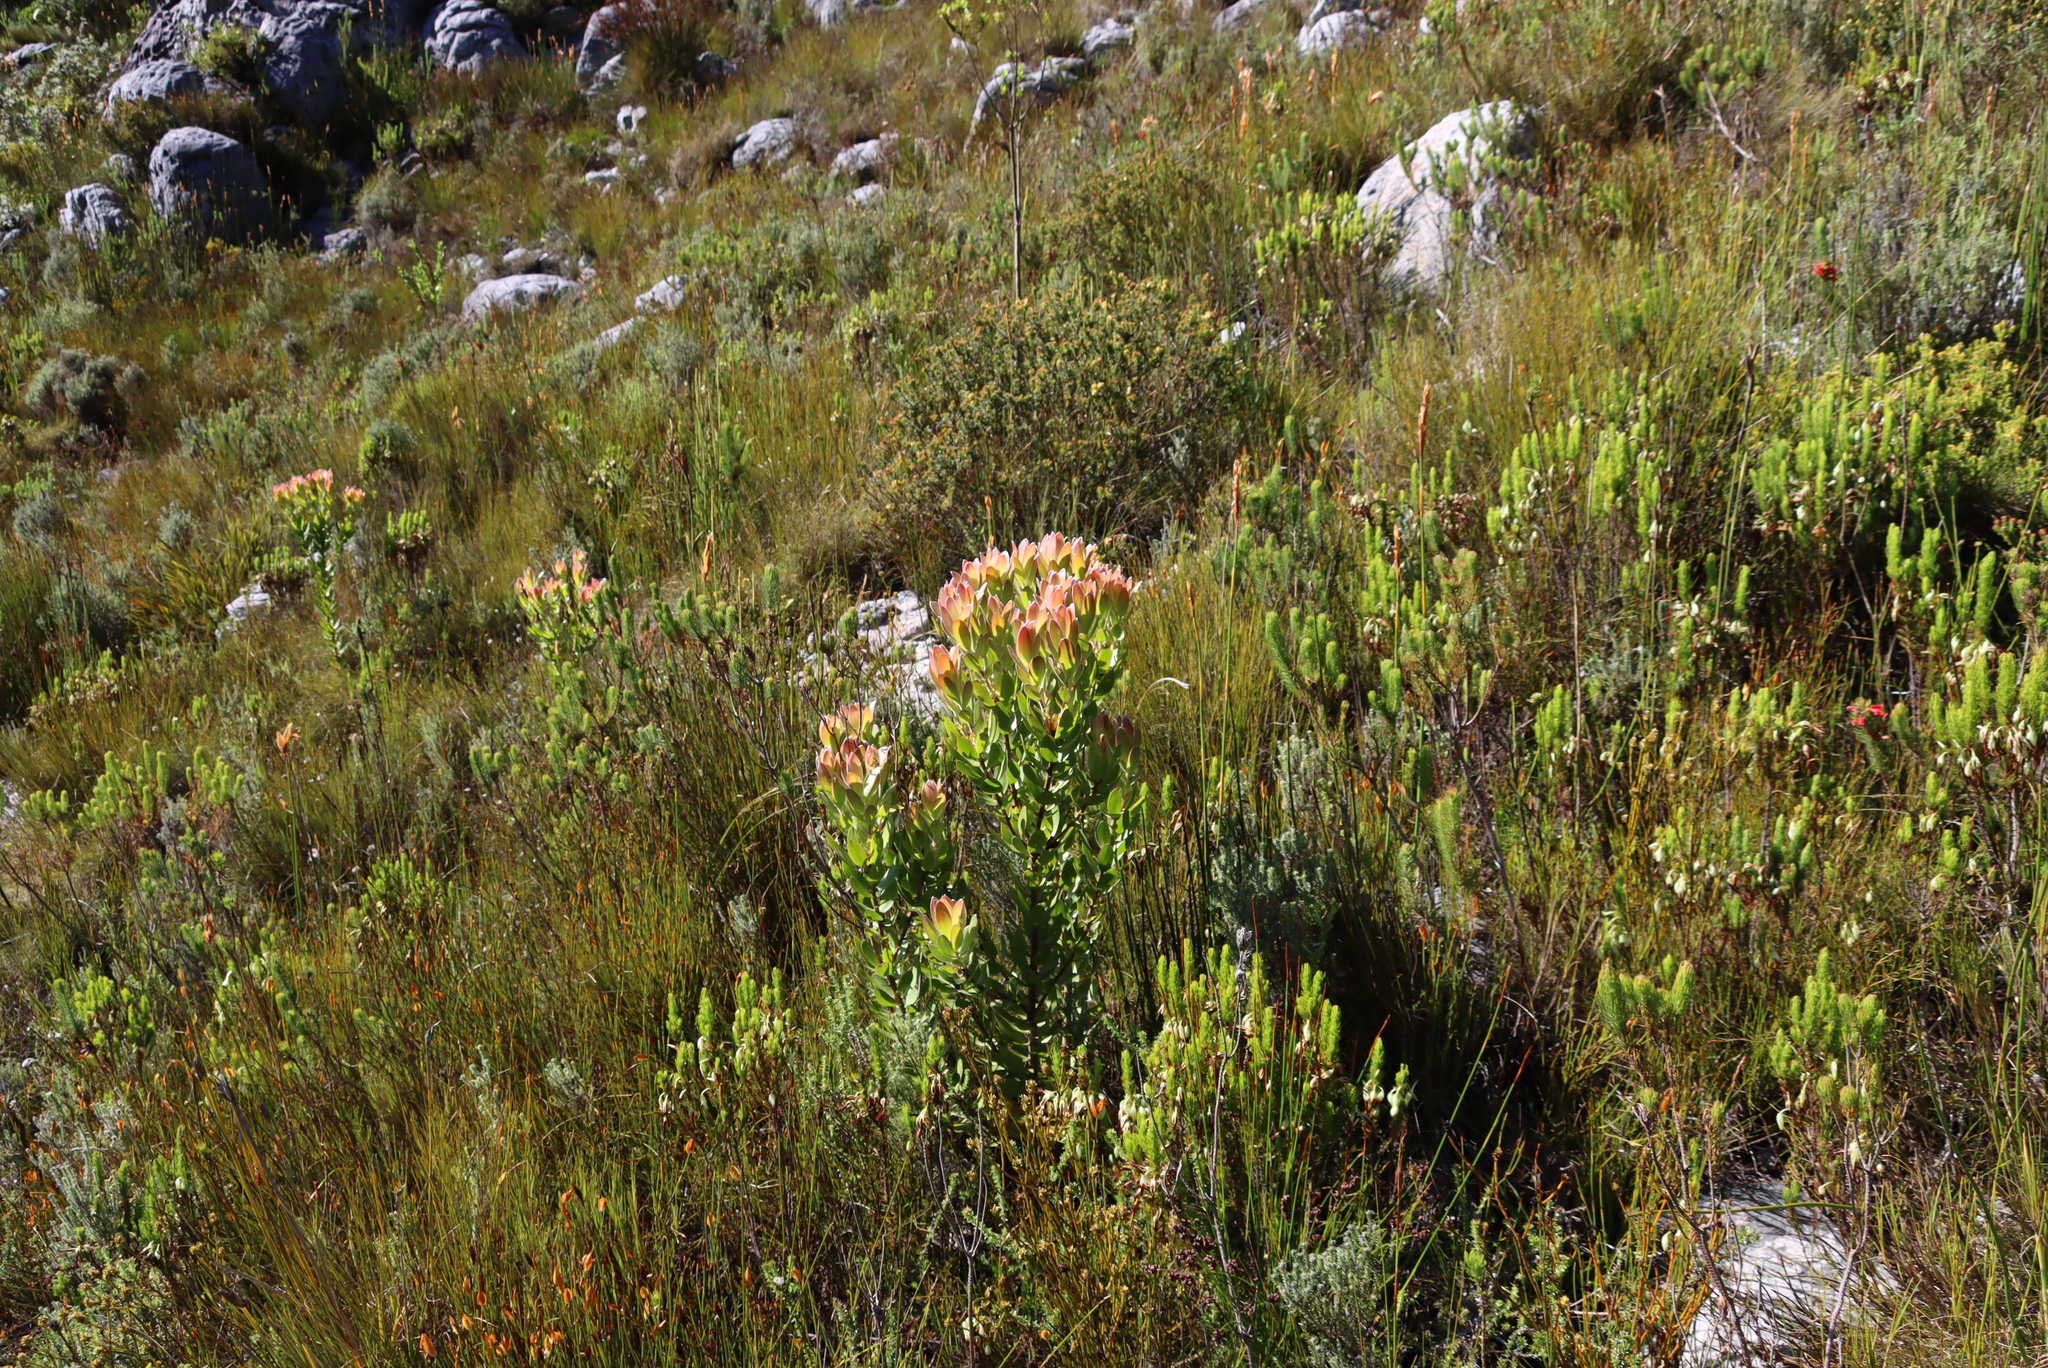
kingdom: Plantae
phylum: Tracheophyta
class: Magnoliopsida
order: Proteales
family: Proteaceae
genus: Leucadendron
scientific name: Leucadendron gandogeri
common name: Broad-leaf conebush
